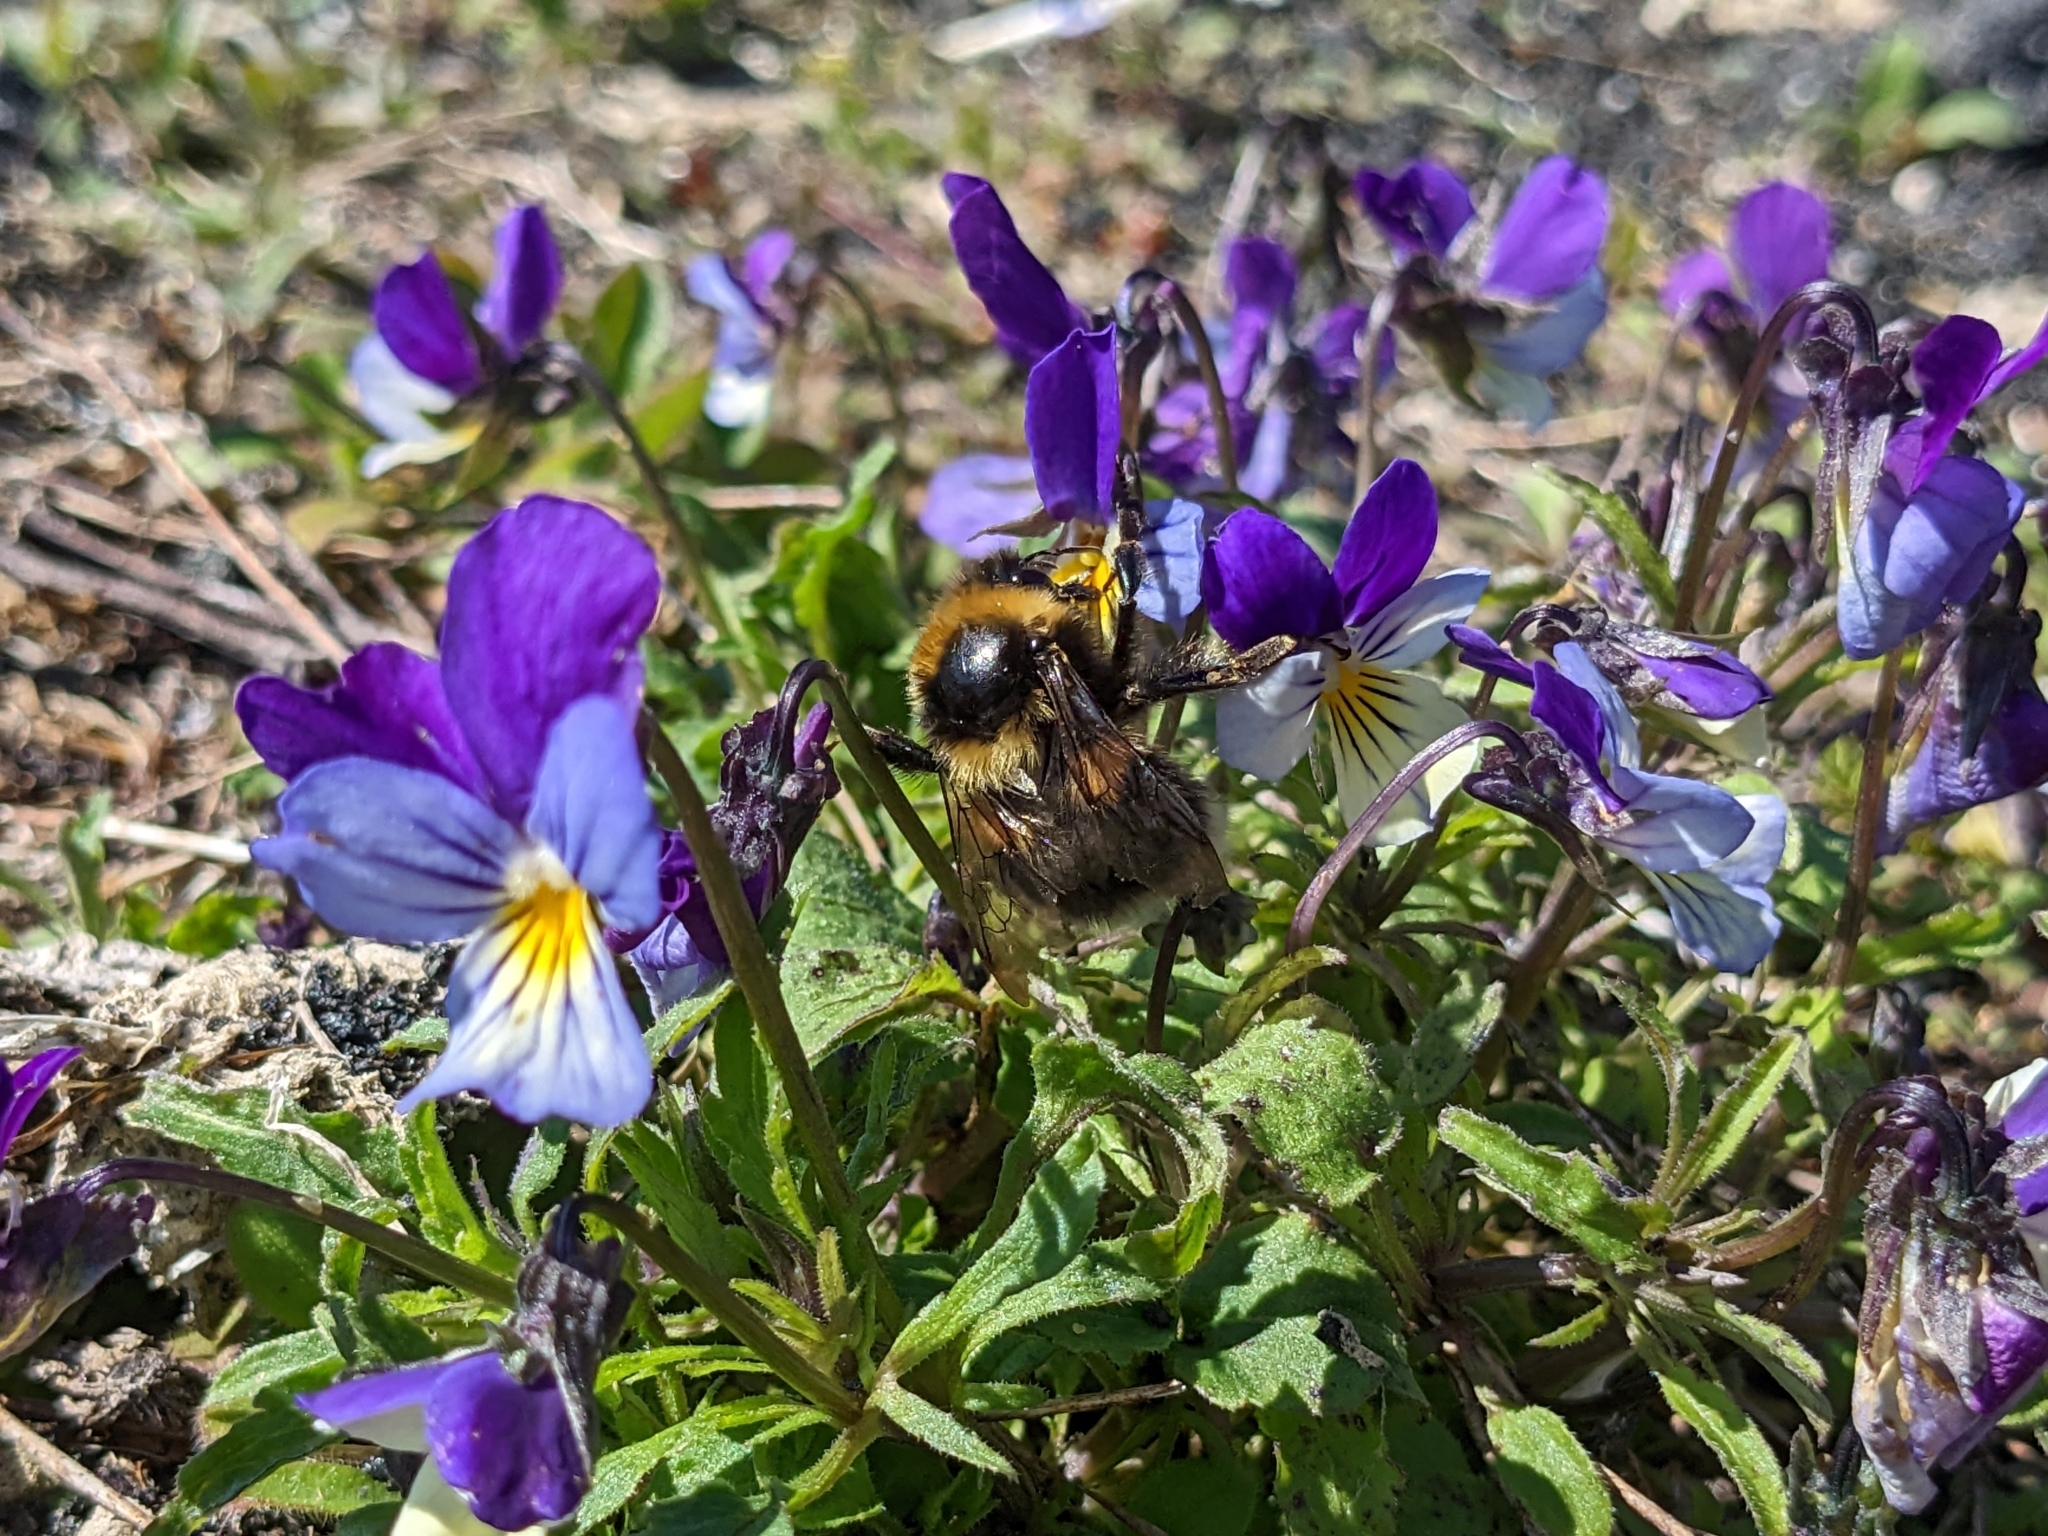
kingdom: Animalia
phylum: Arthropoda
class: Insecta
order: Hymenoptera
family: Apidae
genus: Bombus
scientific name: Bombus jonellus
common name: Heath humble-bee
